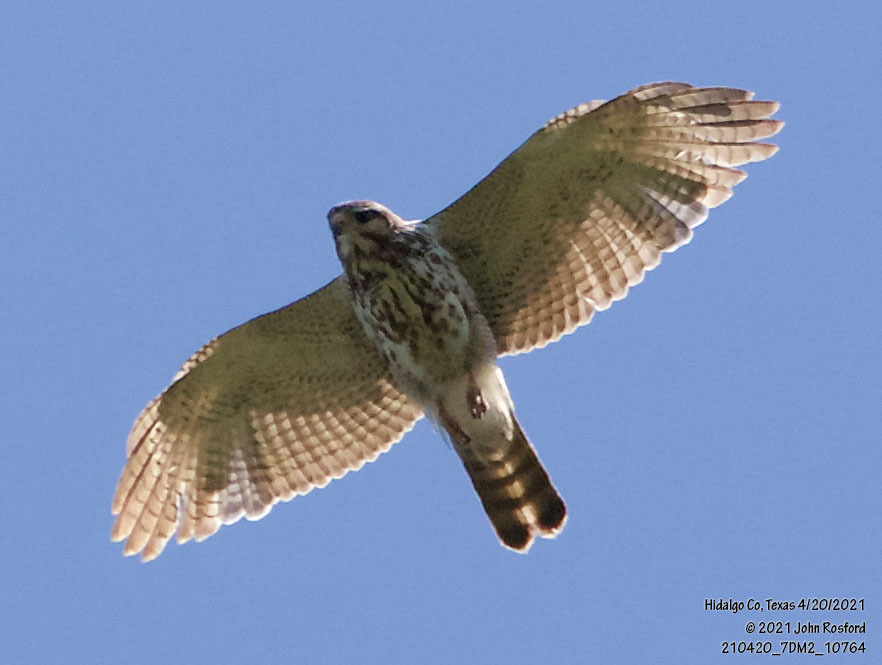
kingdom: Animalia
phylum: Chordata
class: Aves
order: Accipitriformes
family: Accipitridae
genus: Buteo
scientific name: Buteo nitidus
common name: Grey-lined hawk
